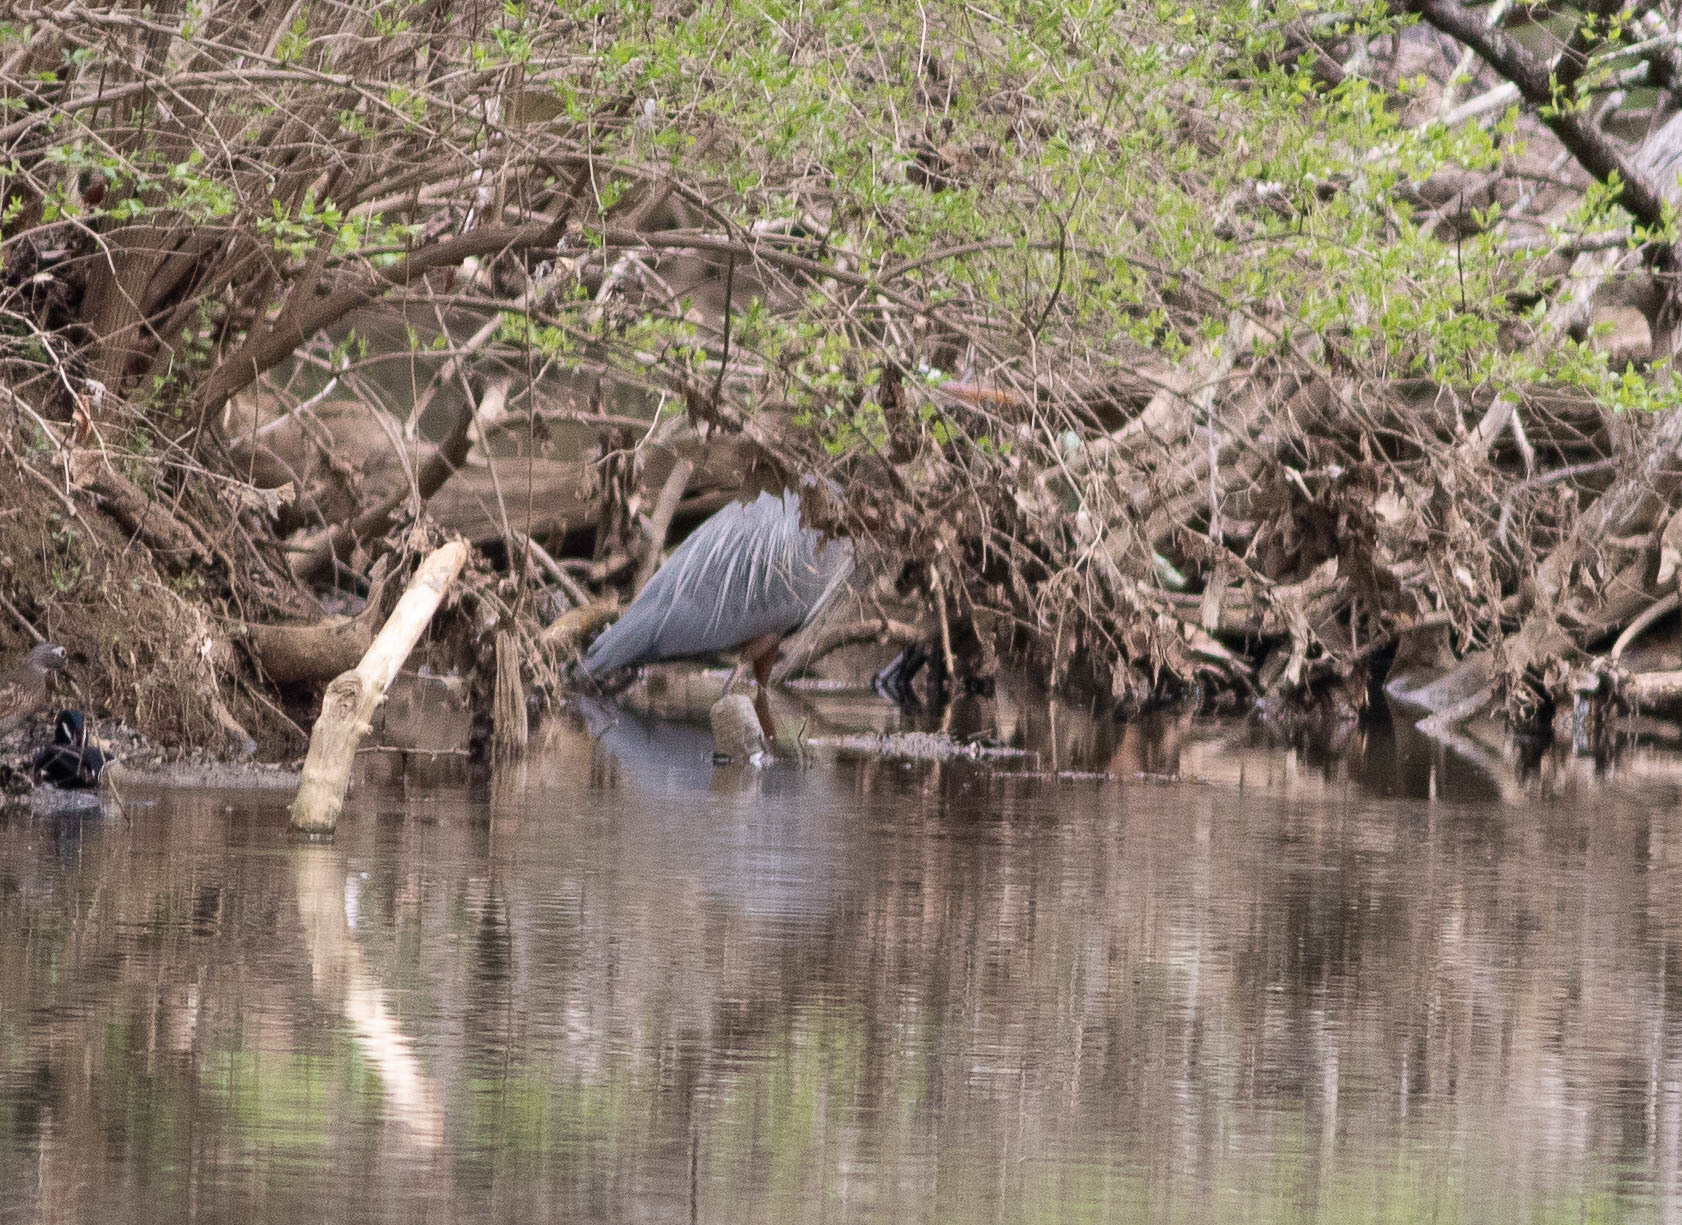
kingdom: Animalia
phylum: Chordata
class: Aves
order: Pelecaniformes
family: Ardeidae
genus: Ardea
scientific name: Ardea herodias
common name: Great blue heron
